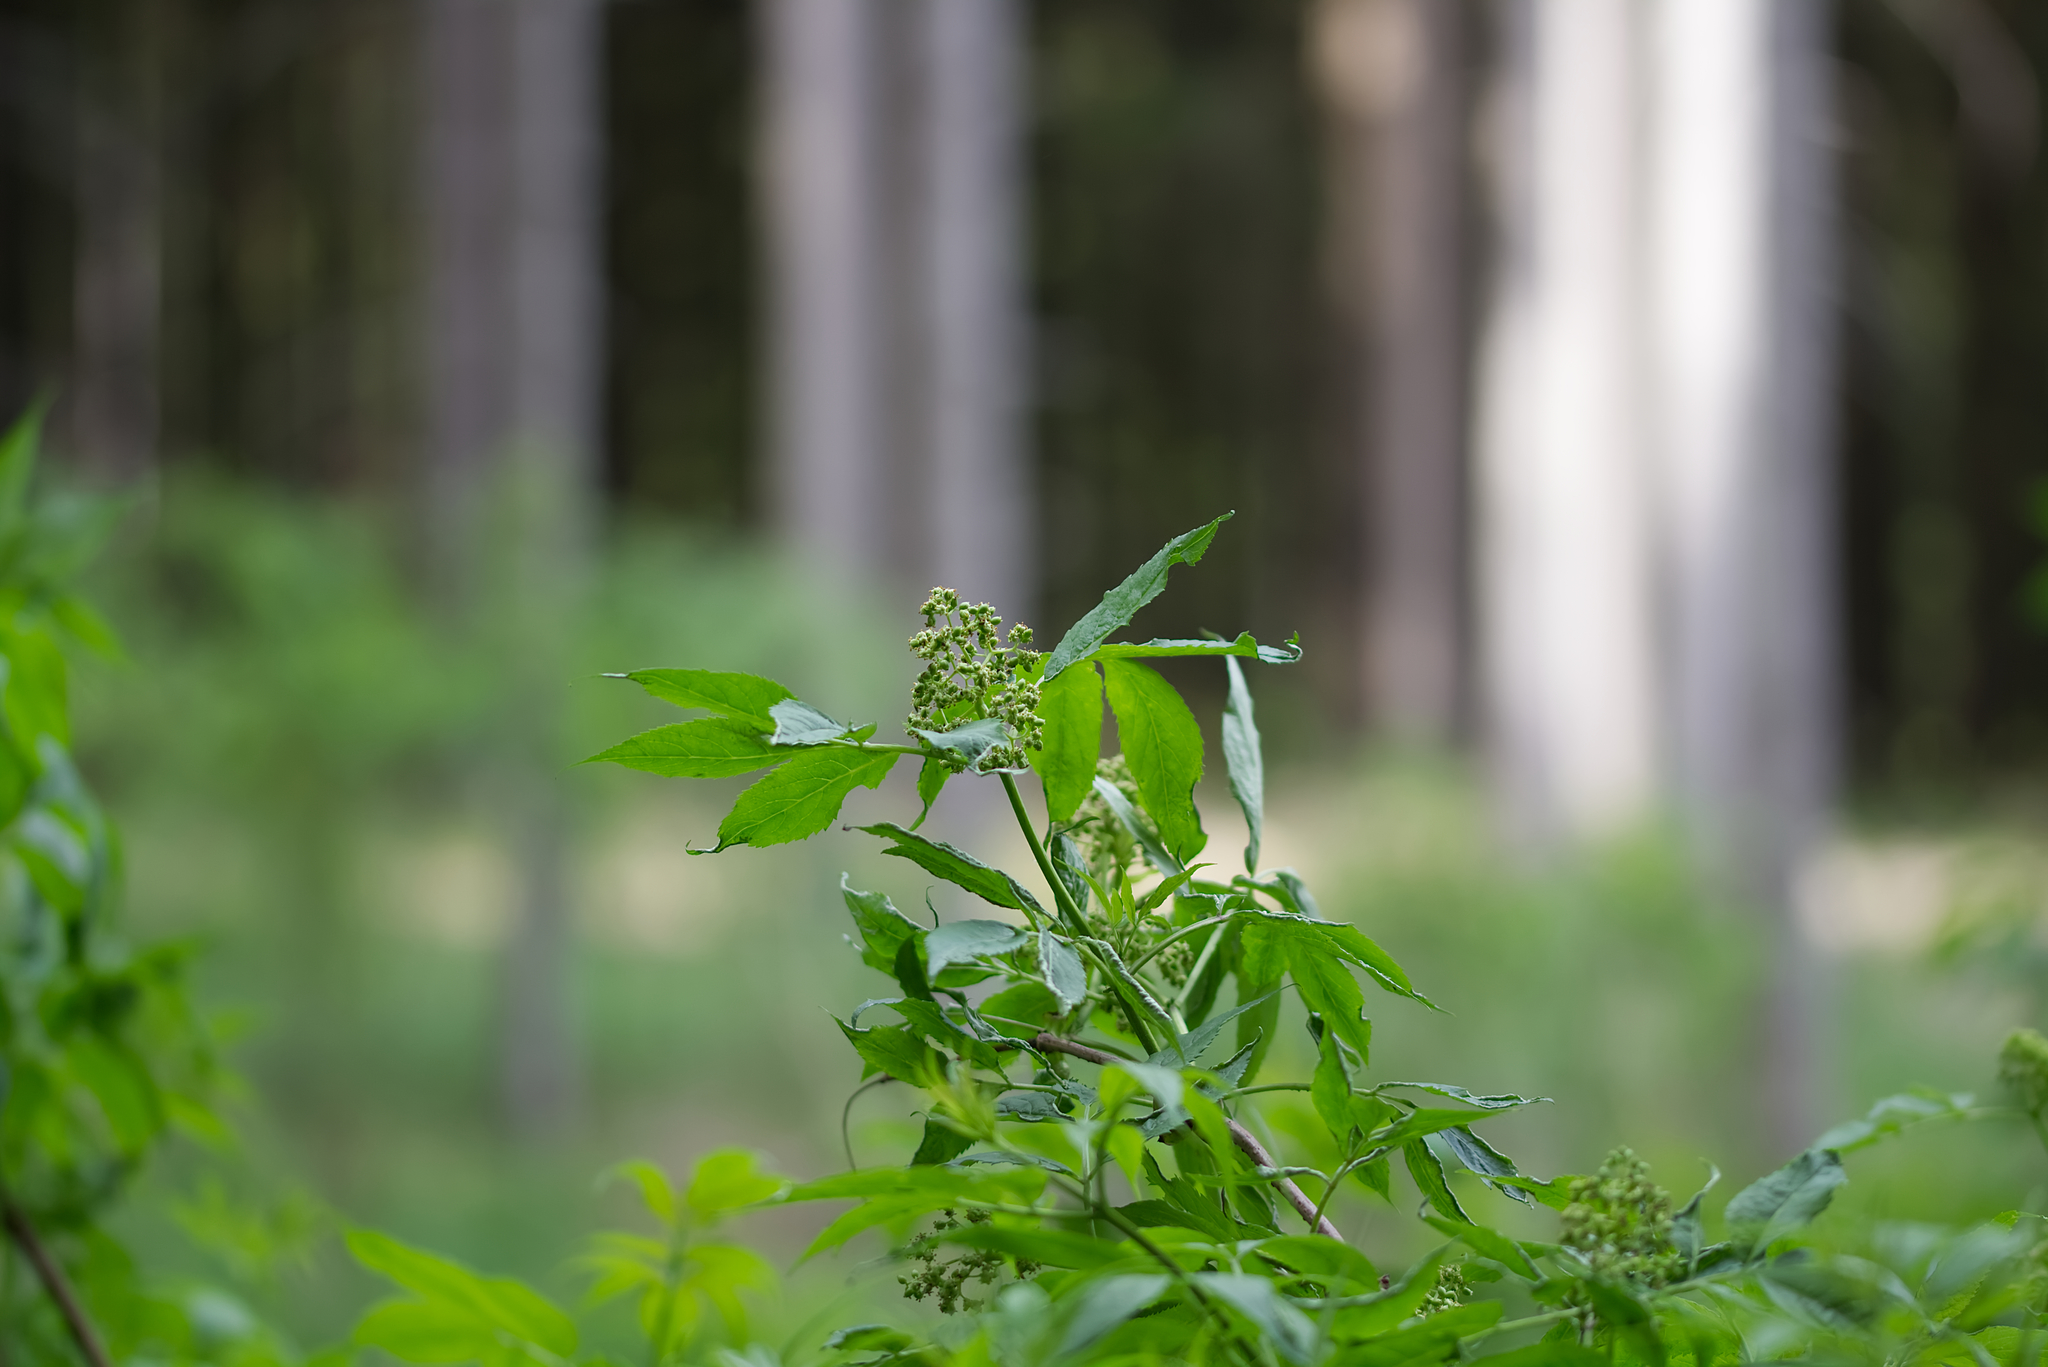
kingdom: Plantae
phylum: Tracheophyta
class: Magnoliopsida
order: Dipsacales
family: Viburnaceae
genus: Sambucus
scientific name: Sambucus racemosa
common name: Red-berried elder
